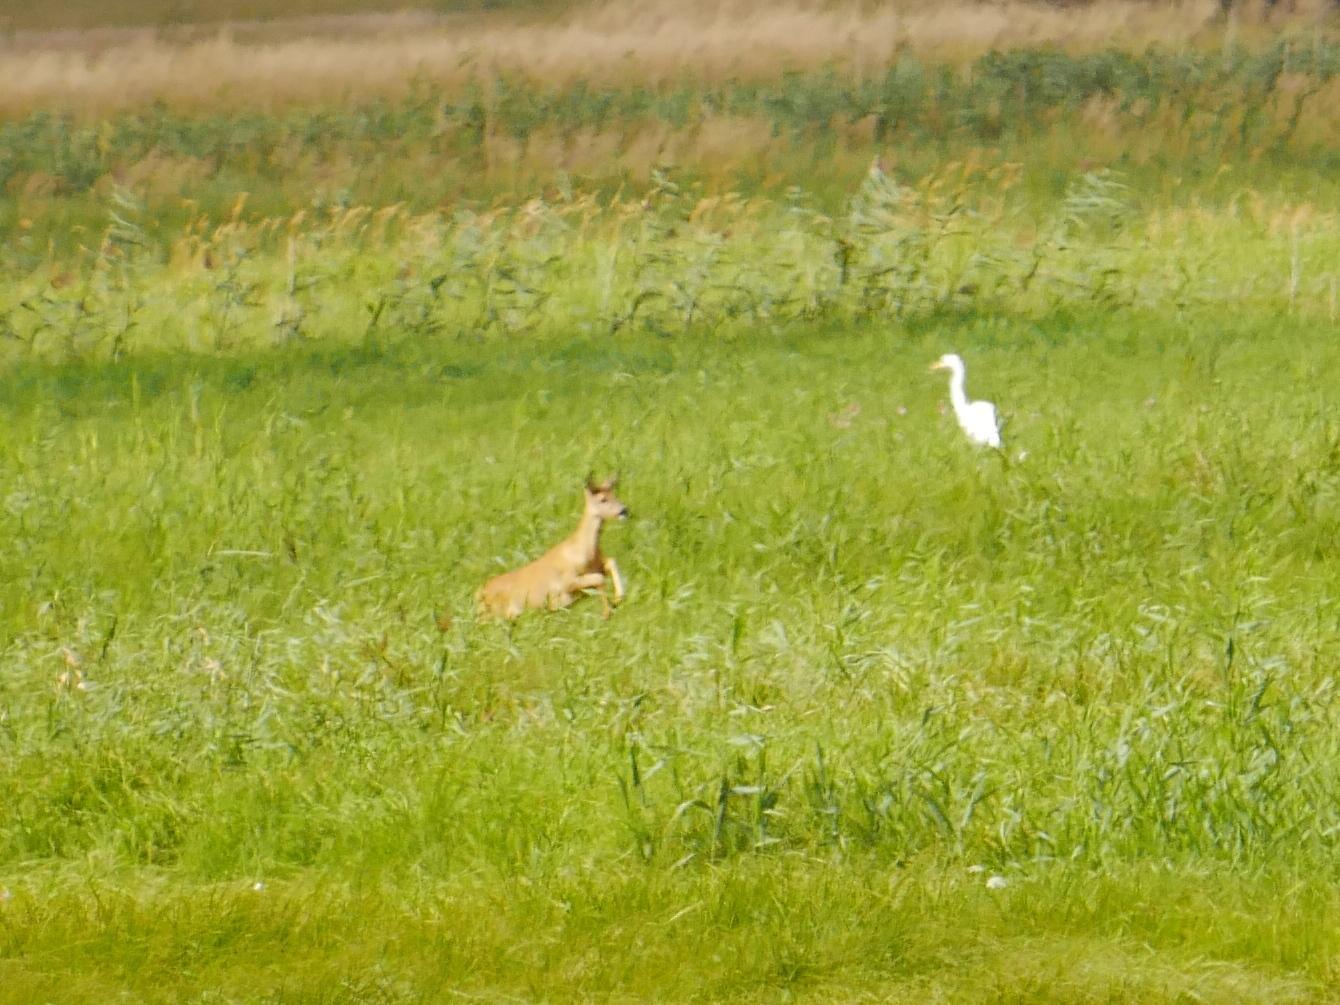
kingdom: Animalia
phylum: Chordata
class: Mammalia
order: Artiodactyla
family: Cervidae
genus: Capreolus
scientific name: Capreolus capreolus
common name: Western roe deer
